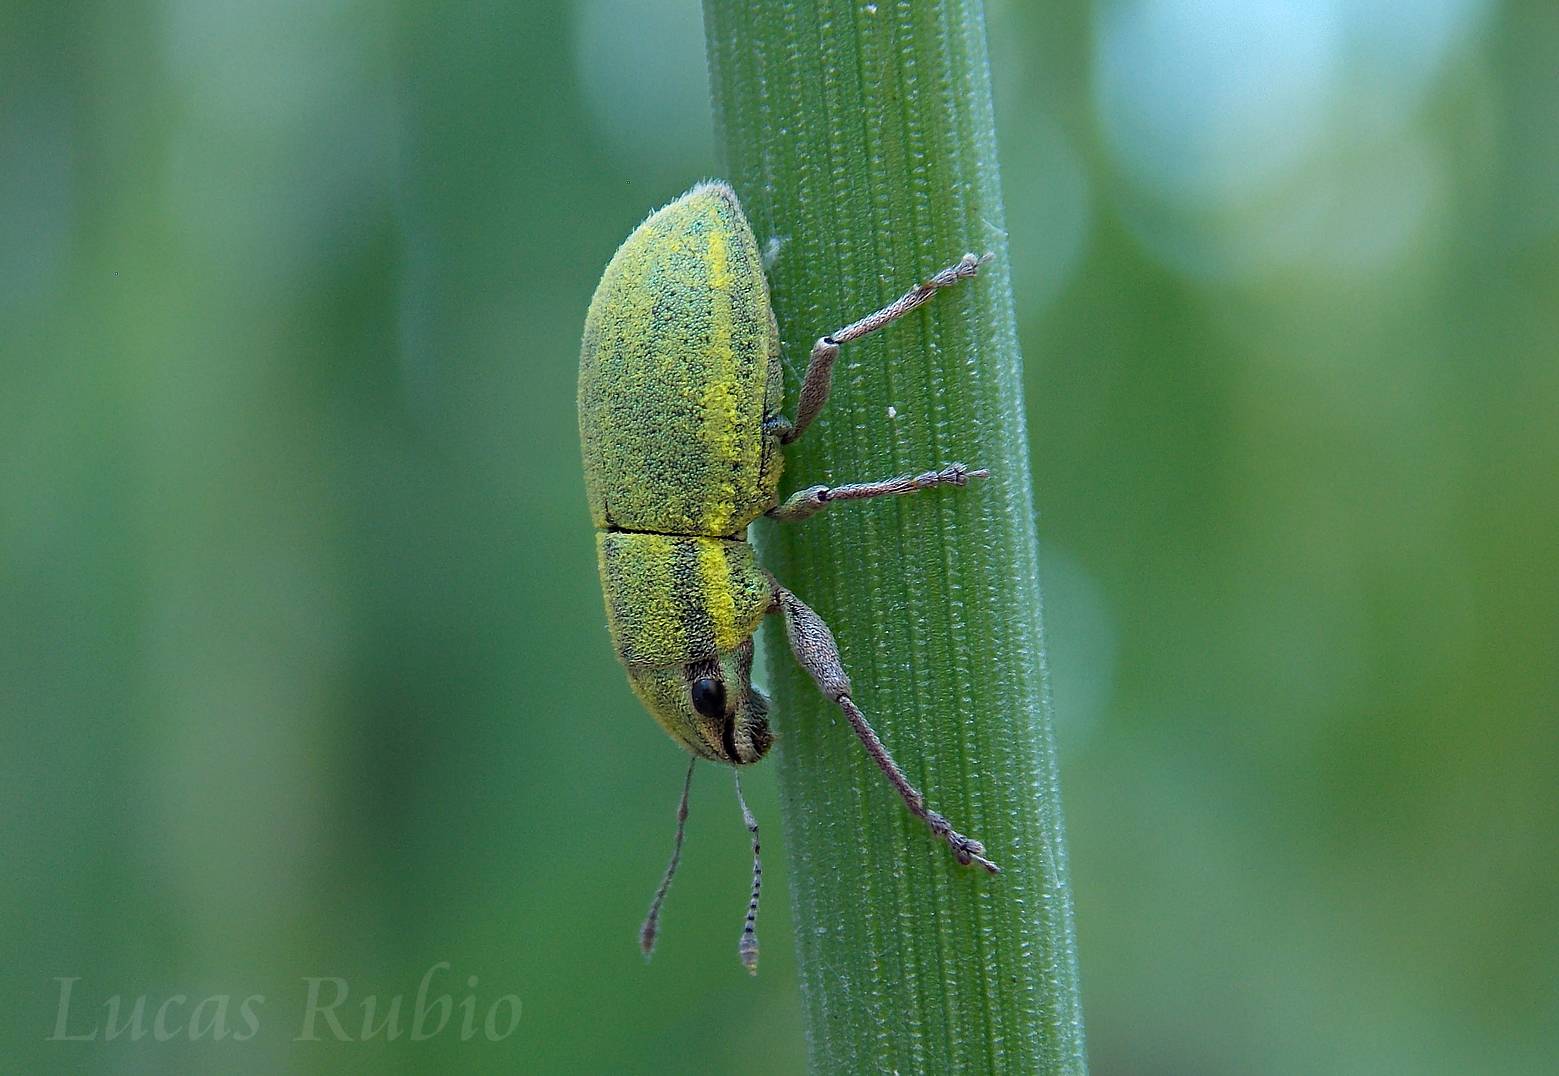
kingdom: Animalia
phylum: Arthropoda
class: Insecta
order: Coleoptera
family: Curculionidae
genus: Pantomorus
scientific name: Pantomorus viridisquamosus
